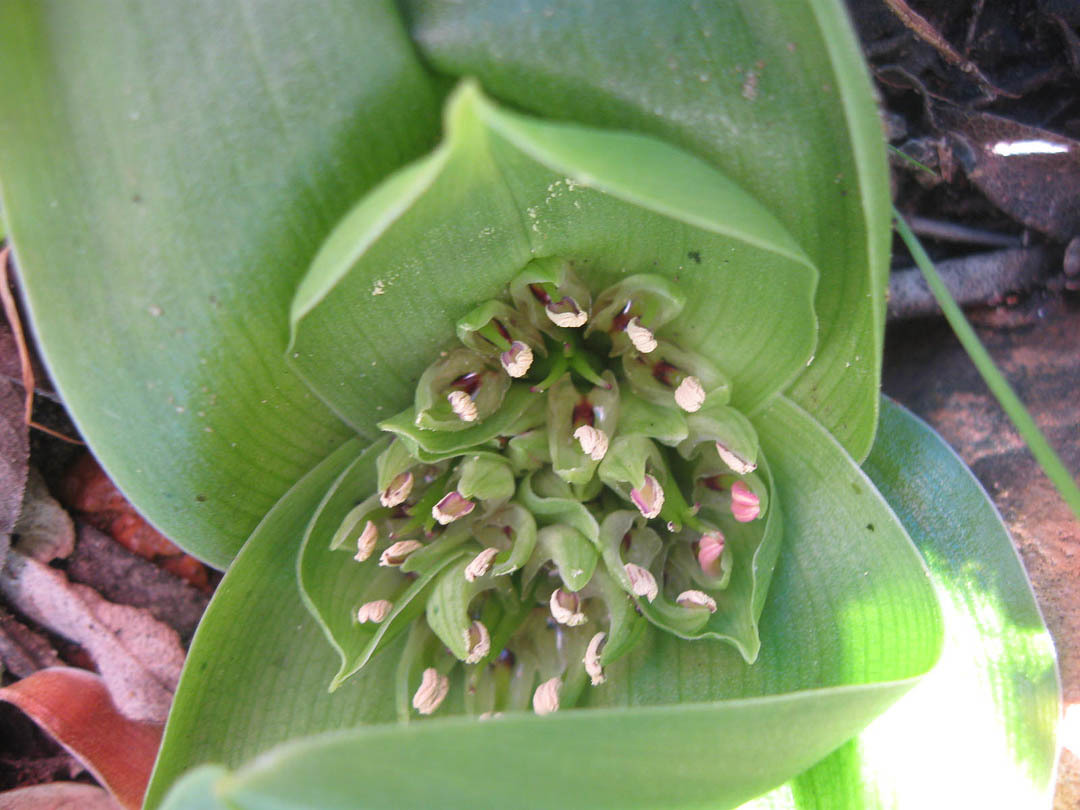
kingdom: Plantae
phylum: Tracheophyta
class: Liliopsida
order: Liliales
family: Colchicaceae
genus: Colchicum
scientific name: Colchicum eucomoides
